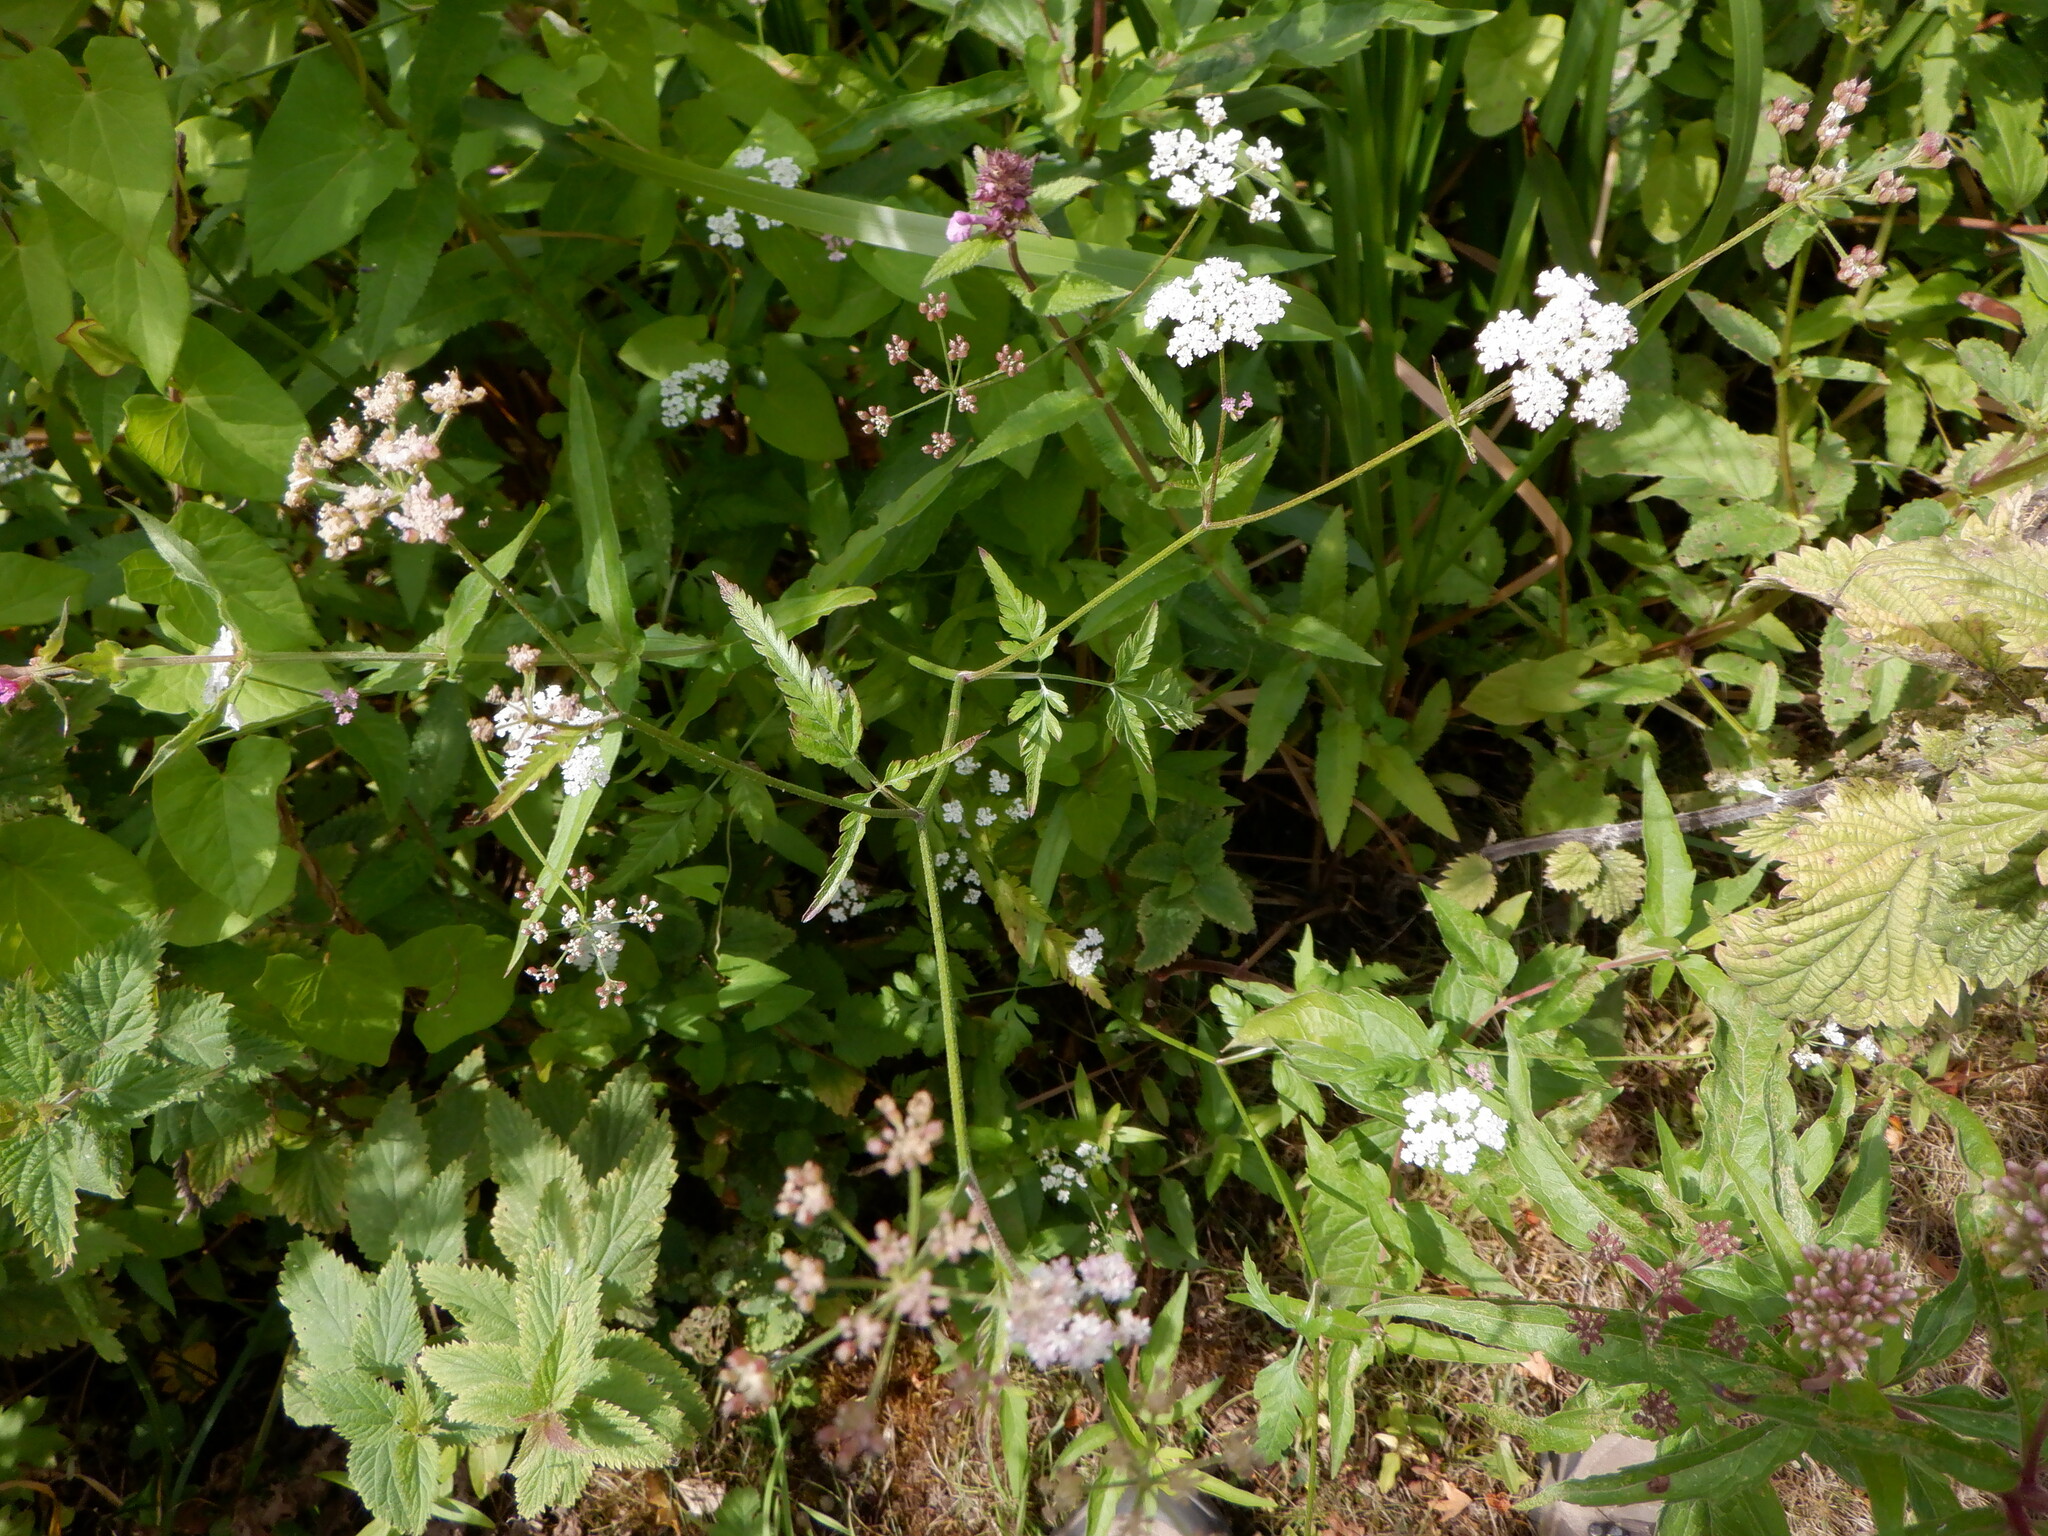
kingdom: Plantae
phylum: Tracheophyta
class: Magnoliopsida
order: Apiales
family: Apiaceae
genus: Torilis
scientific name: Torilis japonica
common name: Upright hedge-parsley
